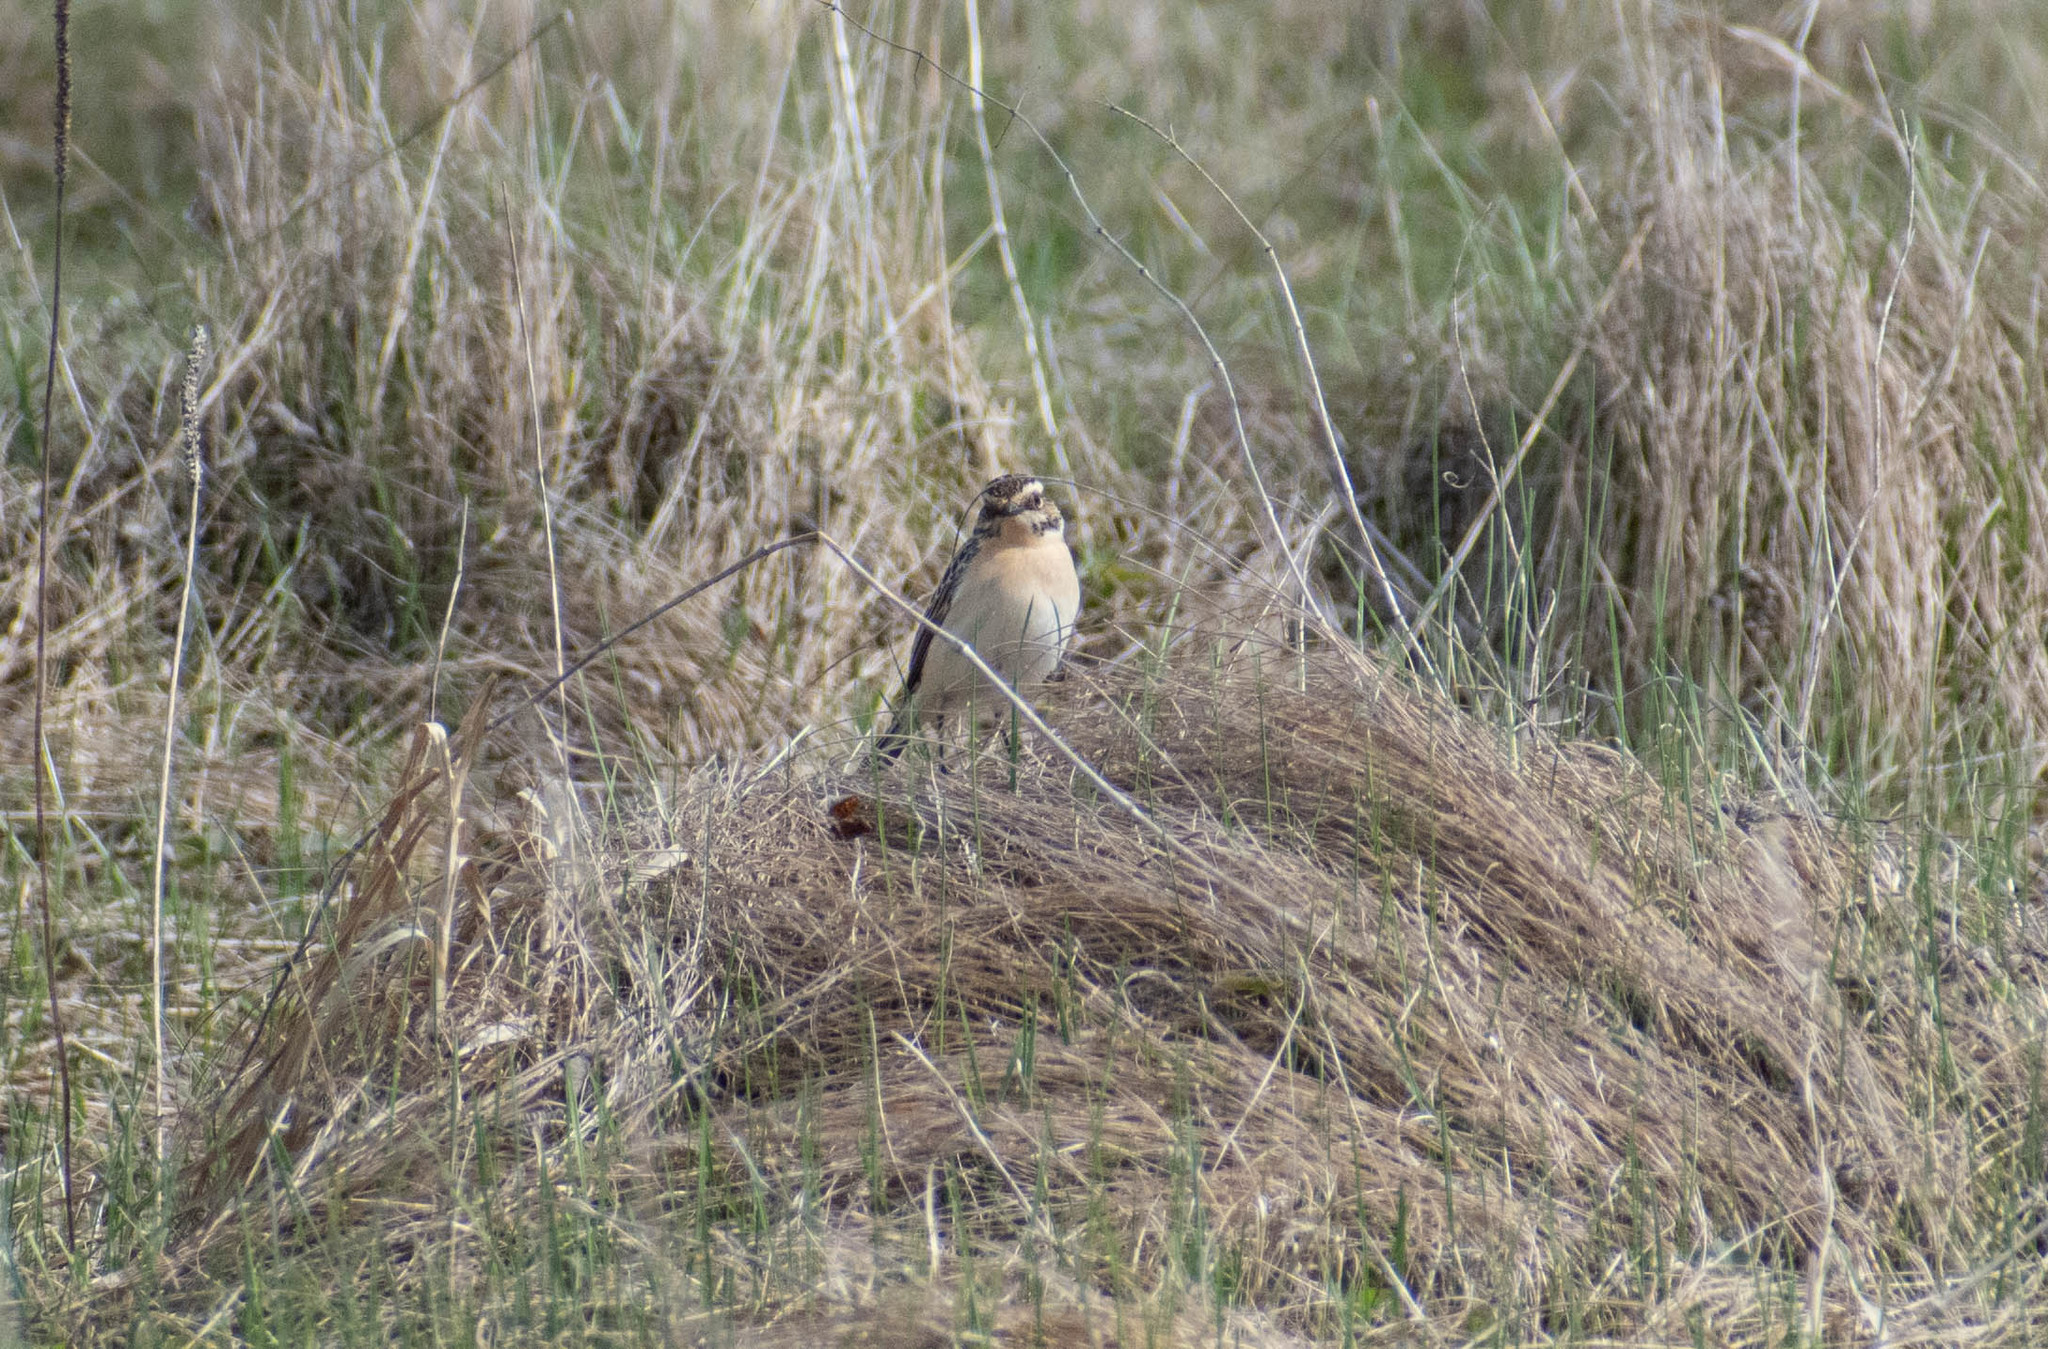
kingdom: Animalia
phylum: Chordata
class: Aves
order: Passeriformes
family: Muscicapidae
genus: Saxicola
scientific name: Saxicola rubetra
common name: Whinchat
